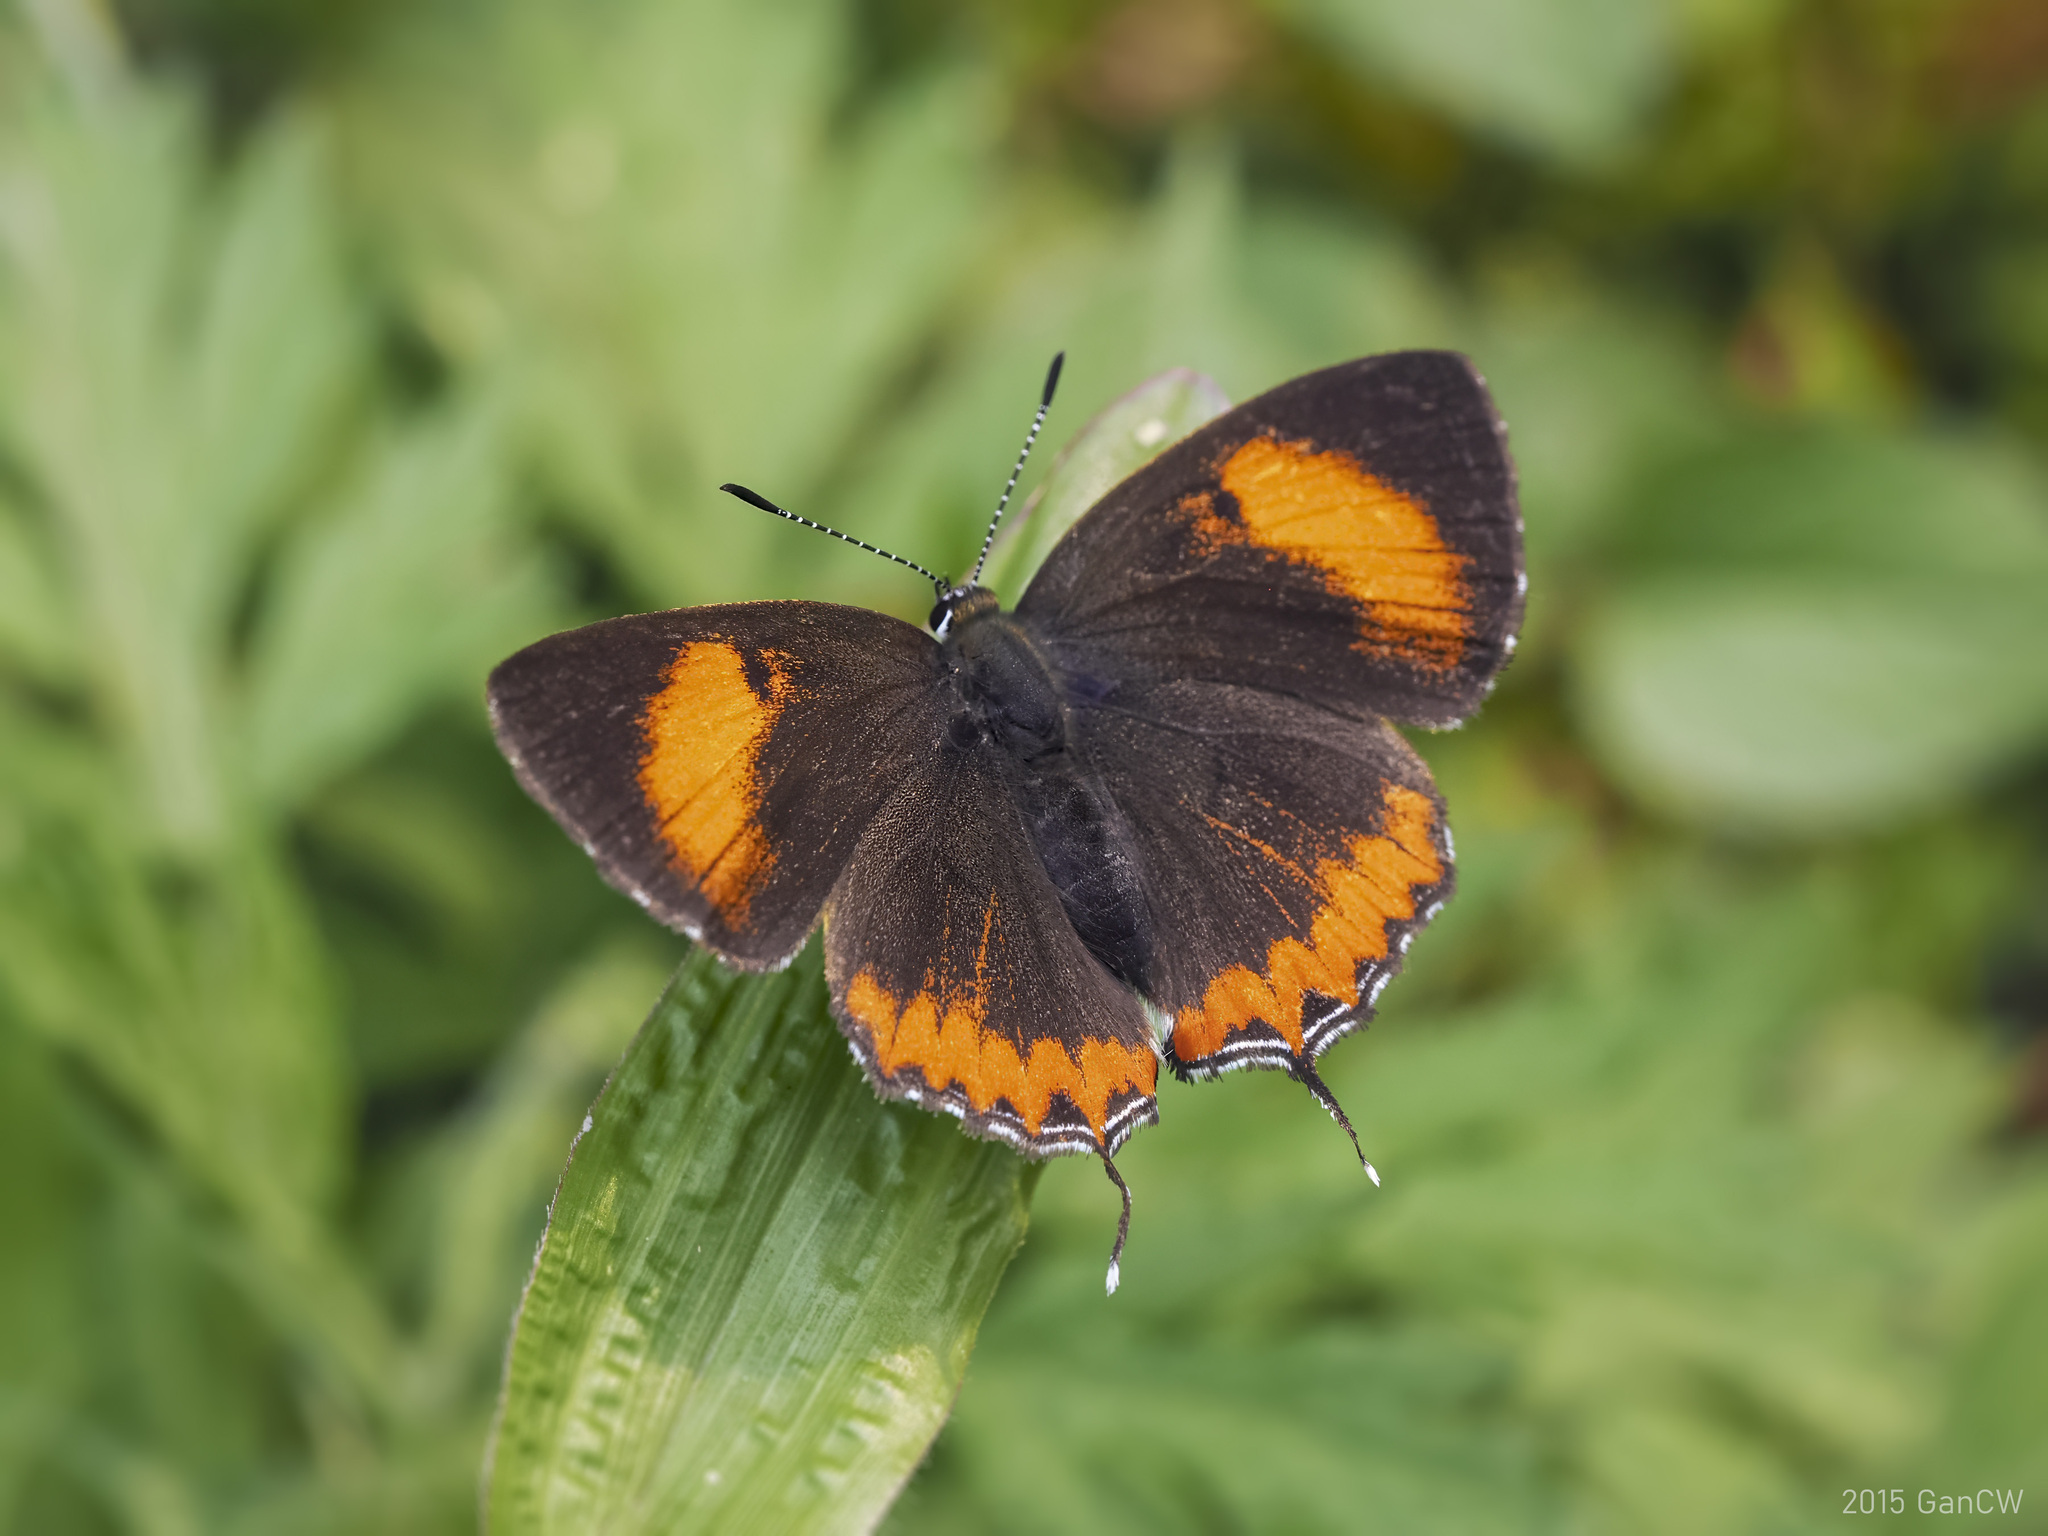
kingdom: Animalia
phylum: Arthropoda
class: Insecta
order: Lepidoptera
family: Lycaenidae
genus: Heliophorus
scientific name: Heliophorus epicles
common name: Purple sapphire
